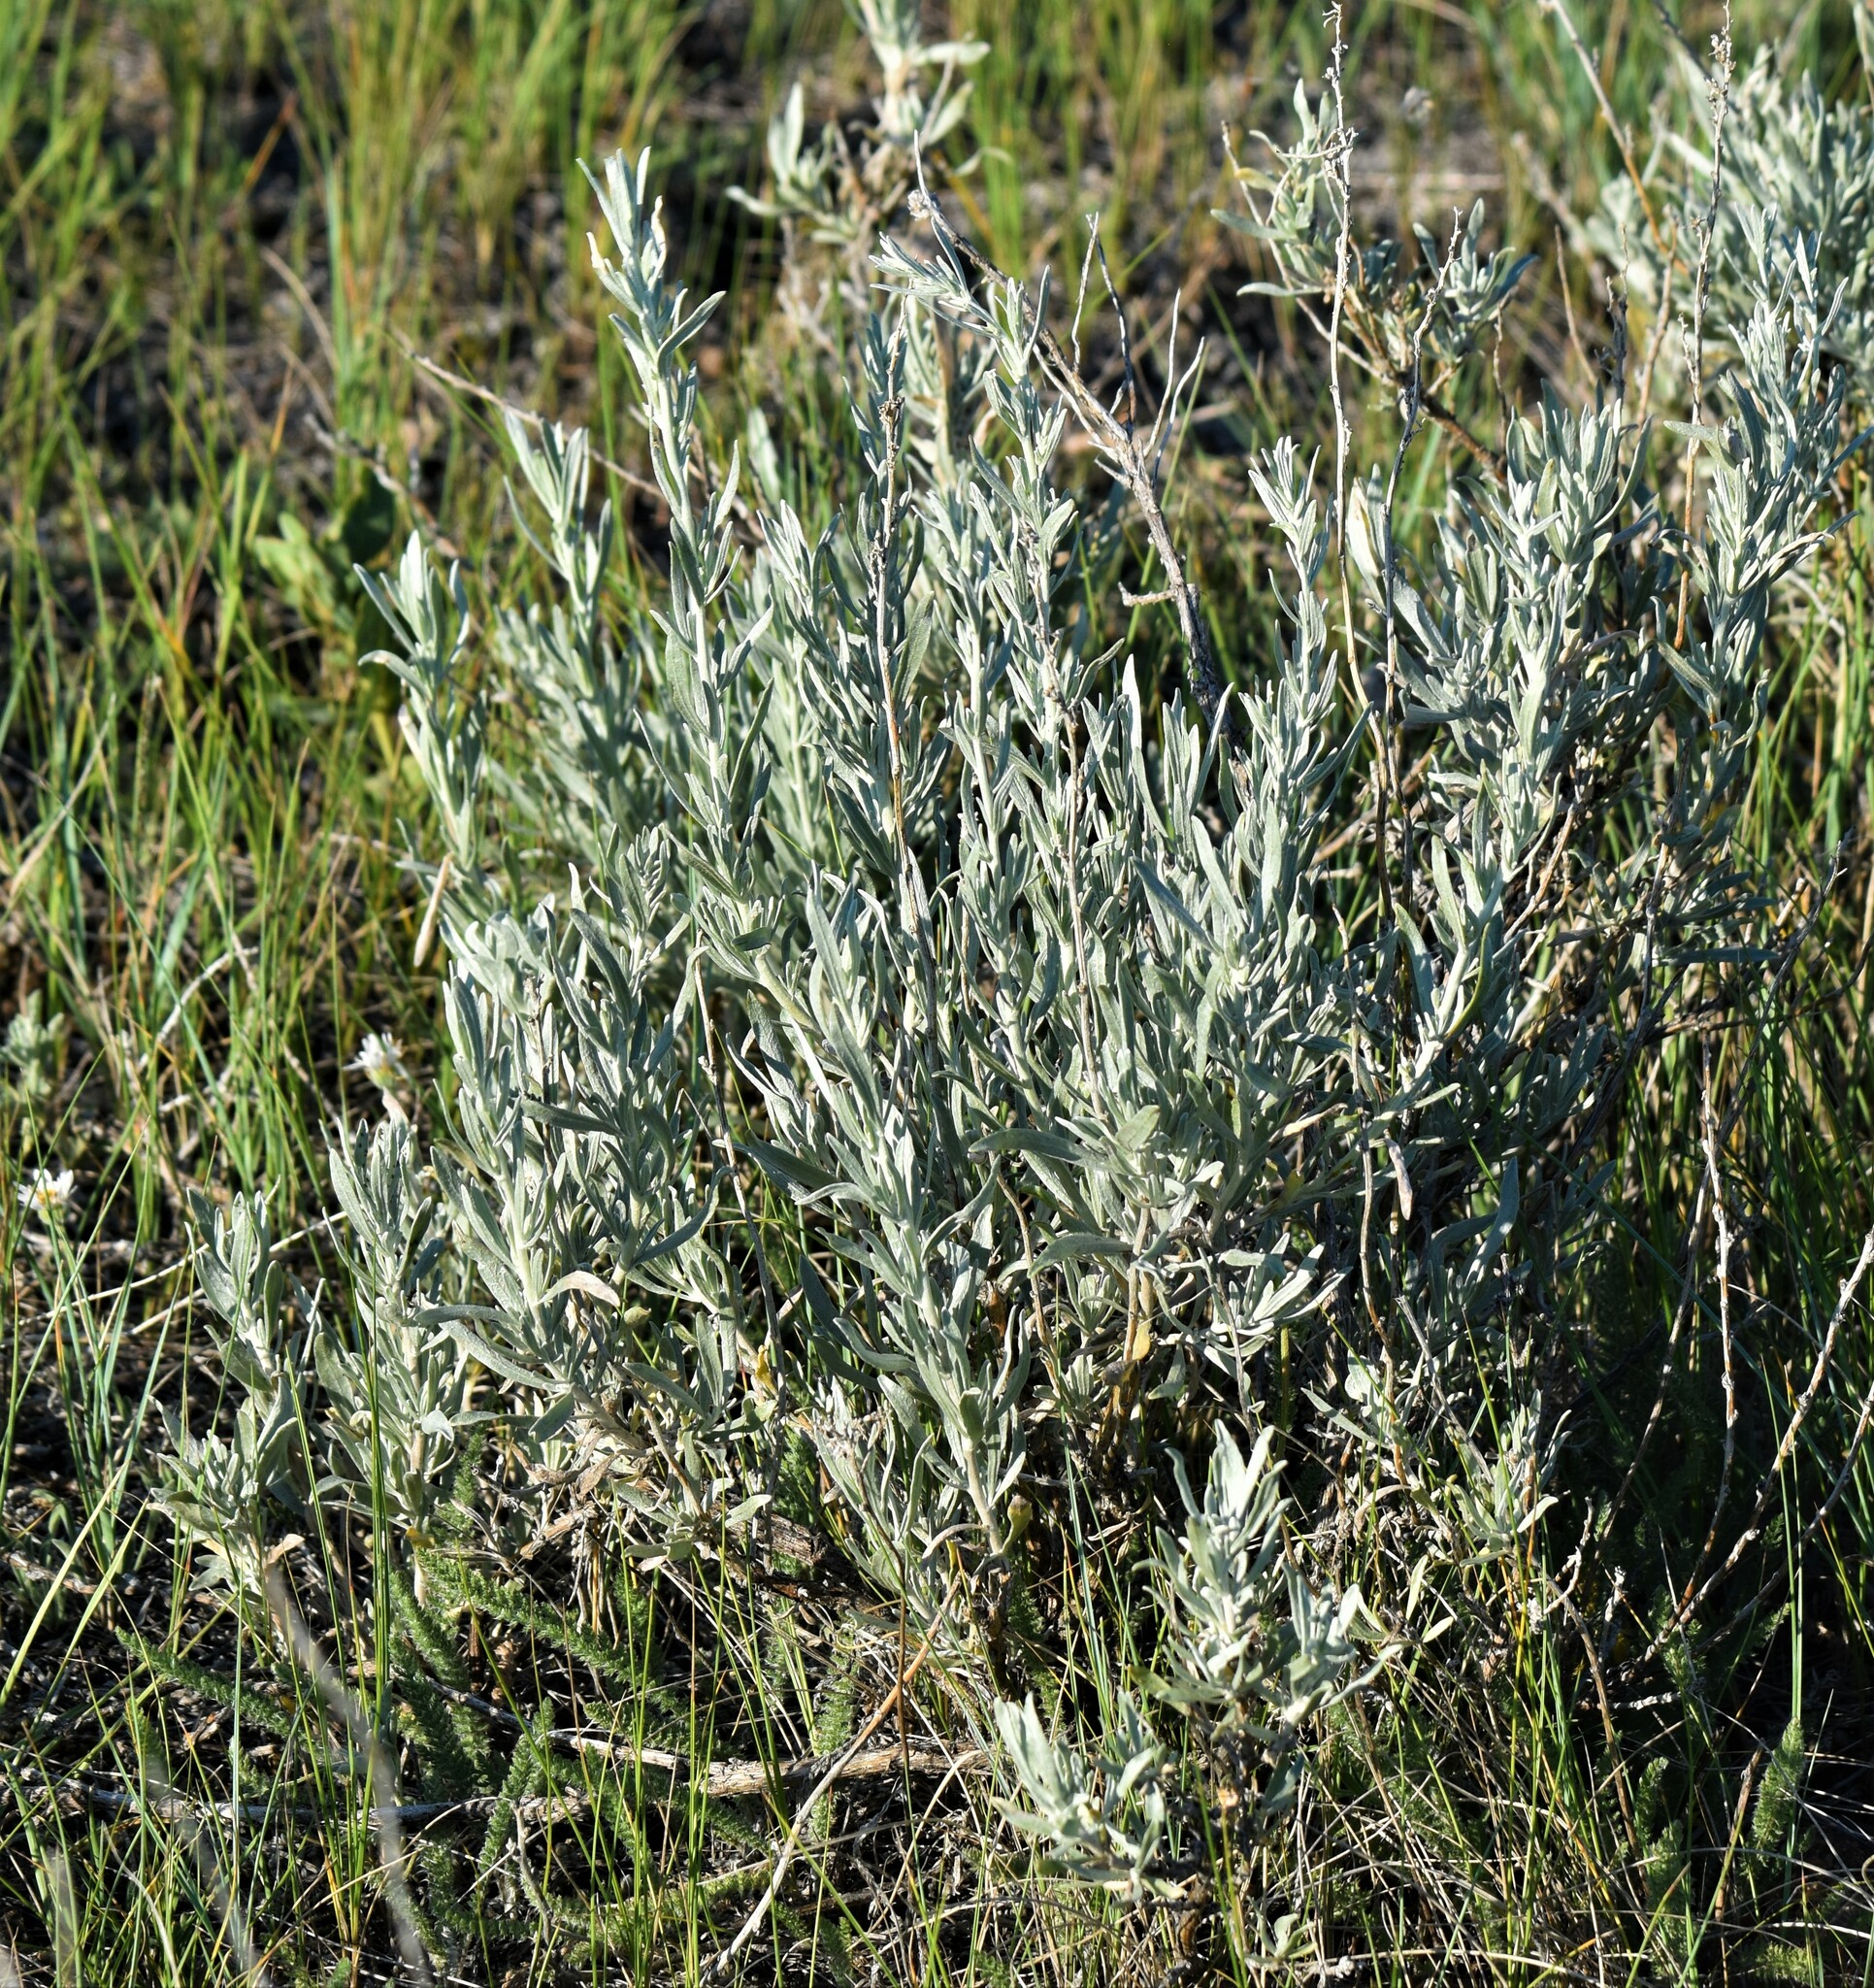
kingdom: Plantae
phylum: Tracheophyta
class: Magnoliopsida
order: Asterales
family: Asteraceae
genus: Artemisia
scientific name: Artemisia cana
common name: Silver sagebrush
